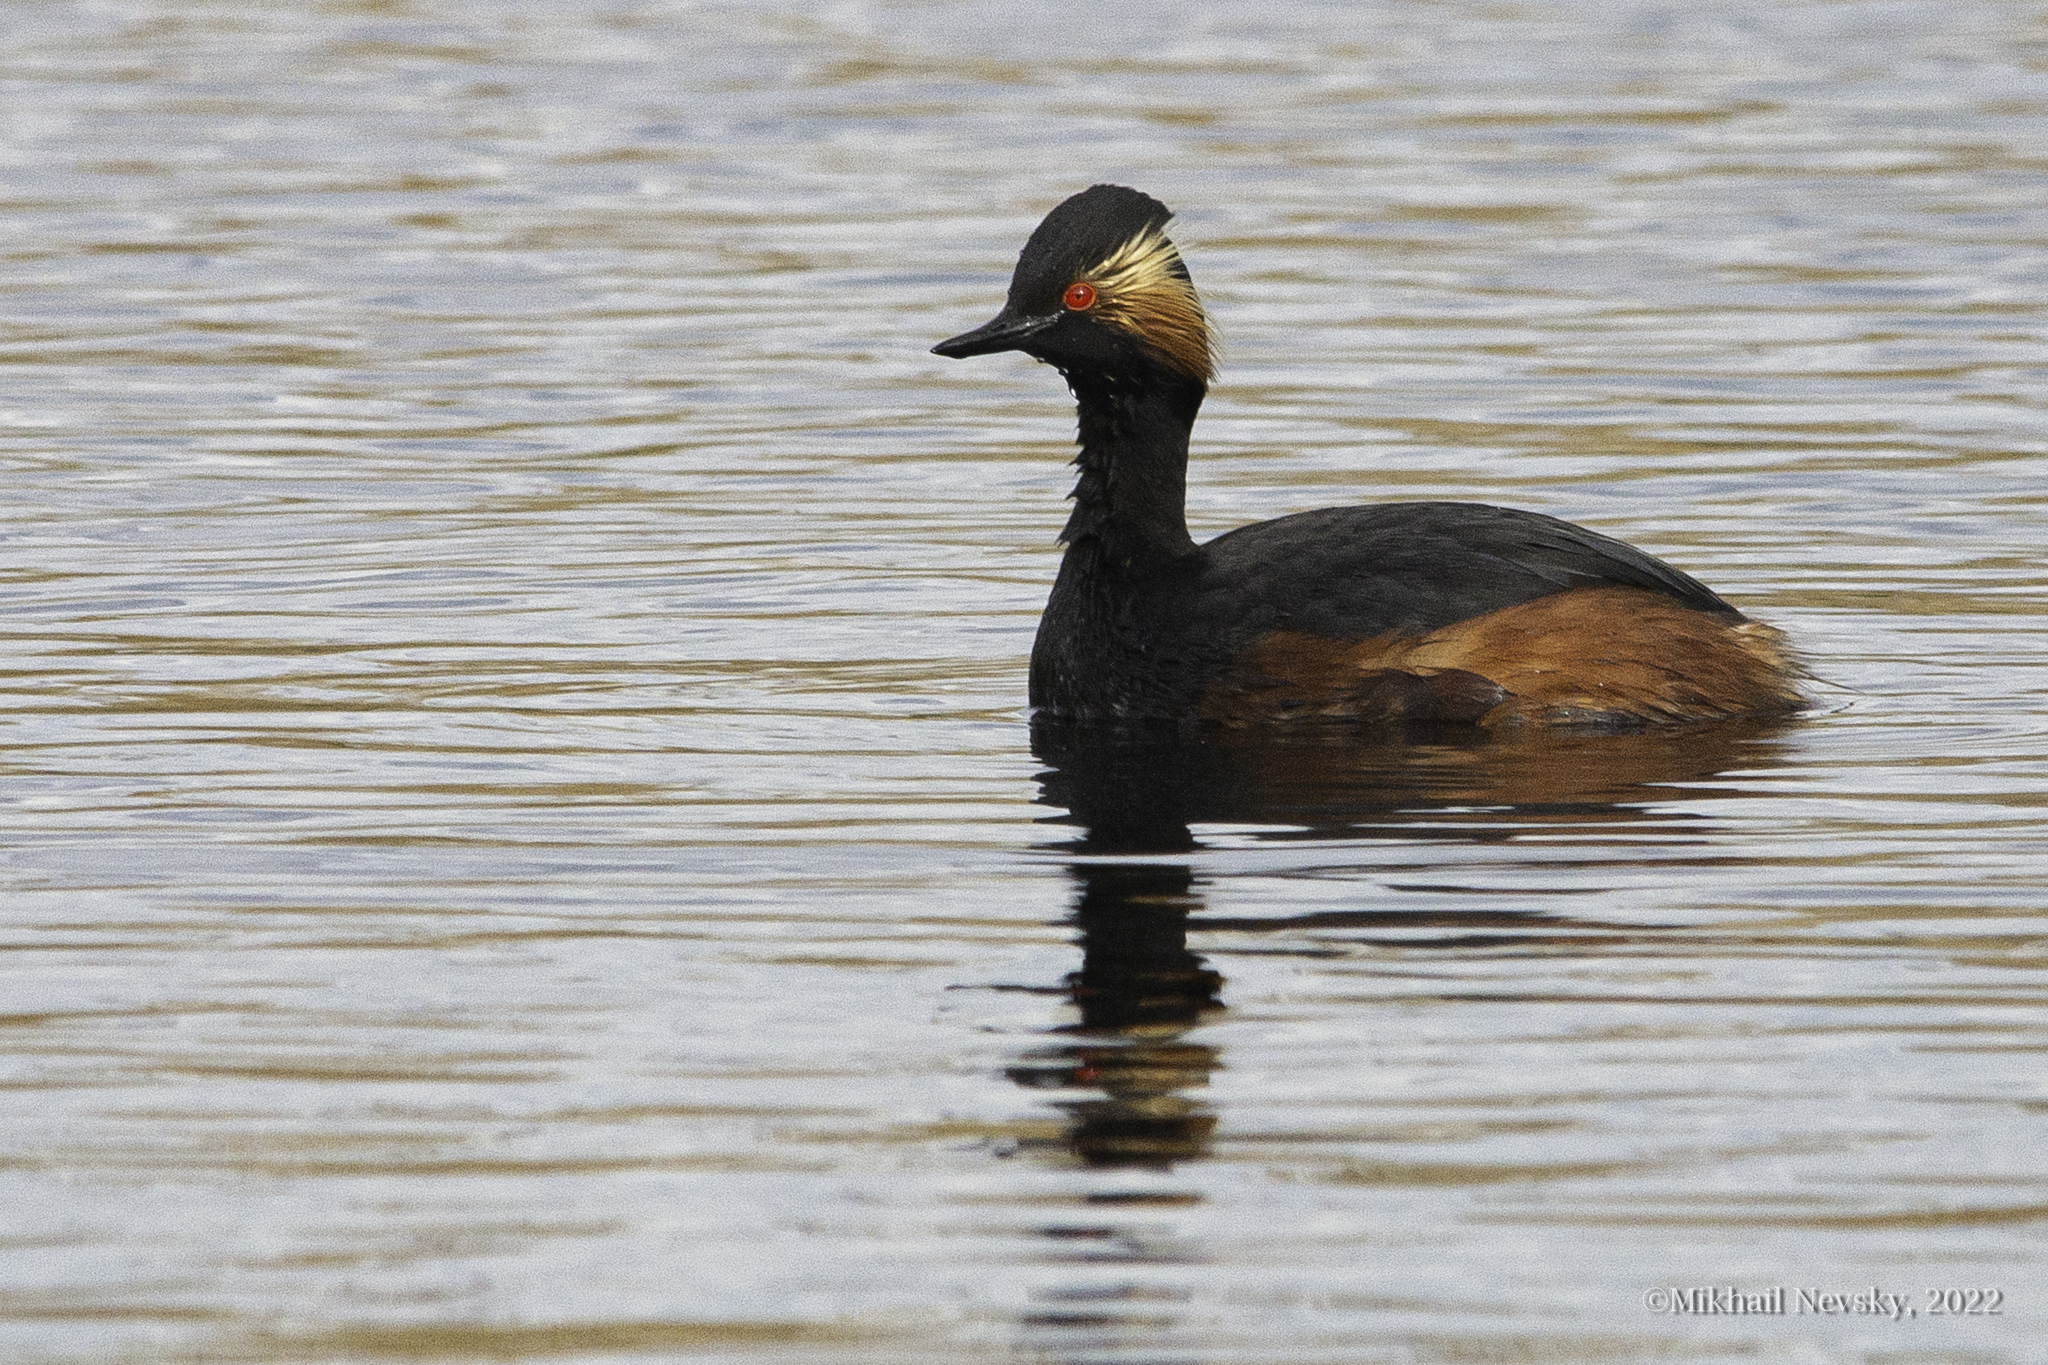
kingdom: Animalia
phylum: Chordata
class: Aves
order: Podicipediformes
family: Podicipedidae
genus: Podiceps
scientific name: Podiceps nigricollis
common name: Black-necked grebe
